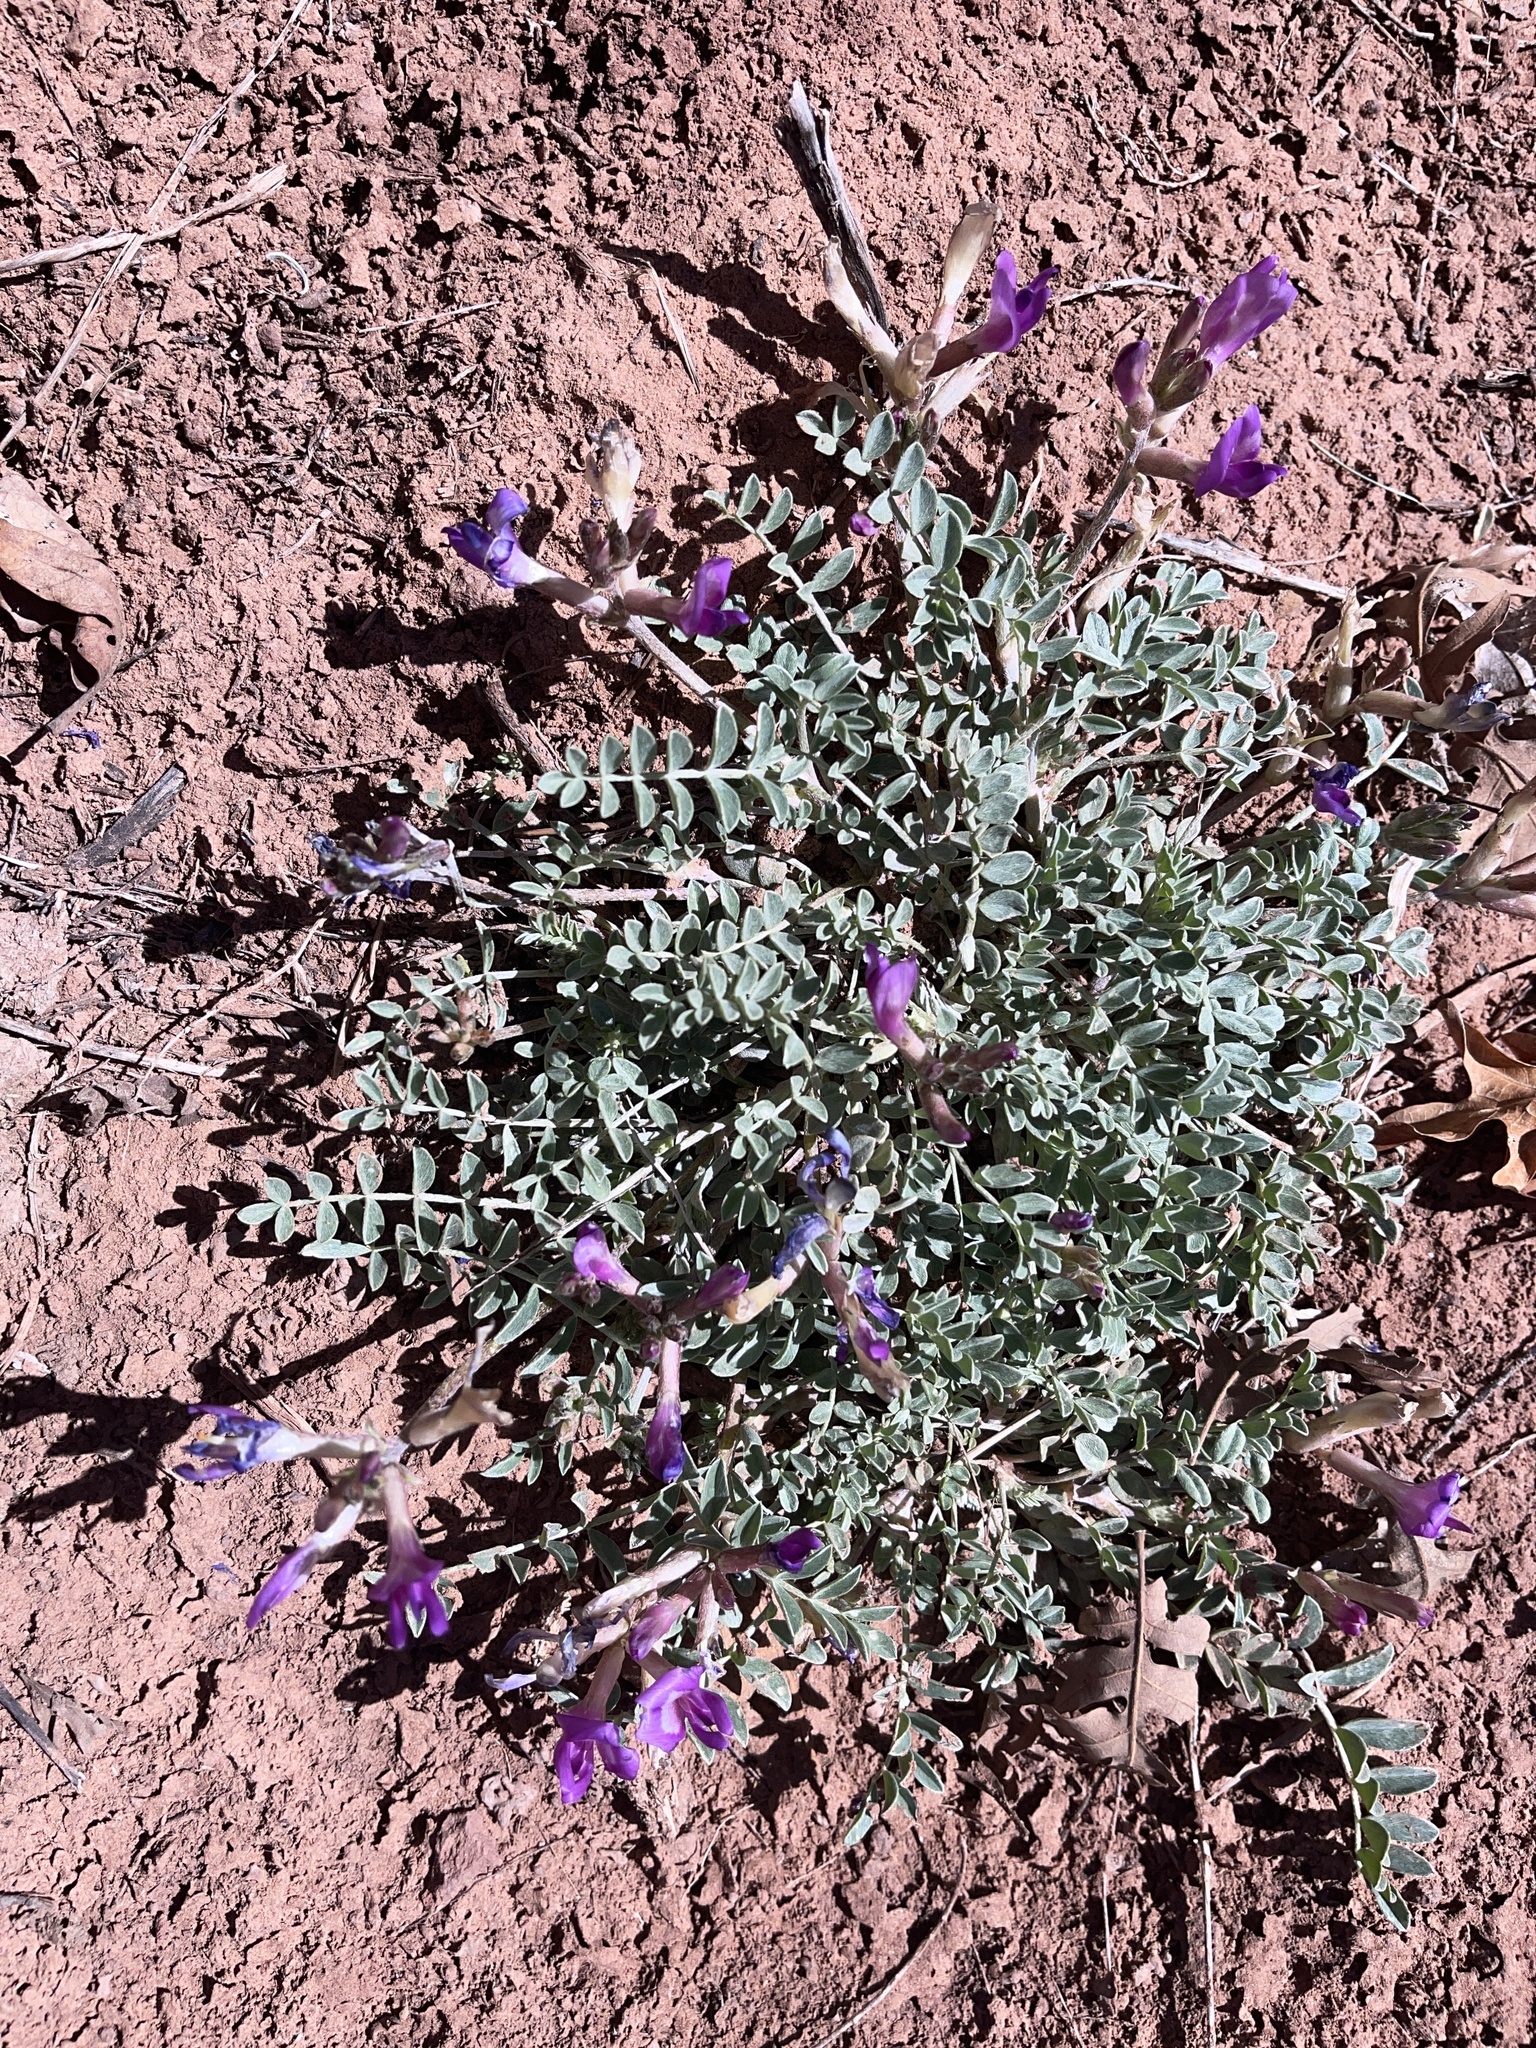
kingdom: Plantae
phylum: Tracheophyta
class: Magnoliopsida
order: Fabales
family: Fabaceae
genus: Astragalus
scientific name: Astragalus amphioxys
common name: Crescent milk-vetch
